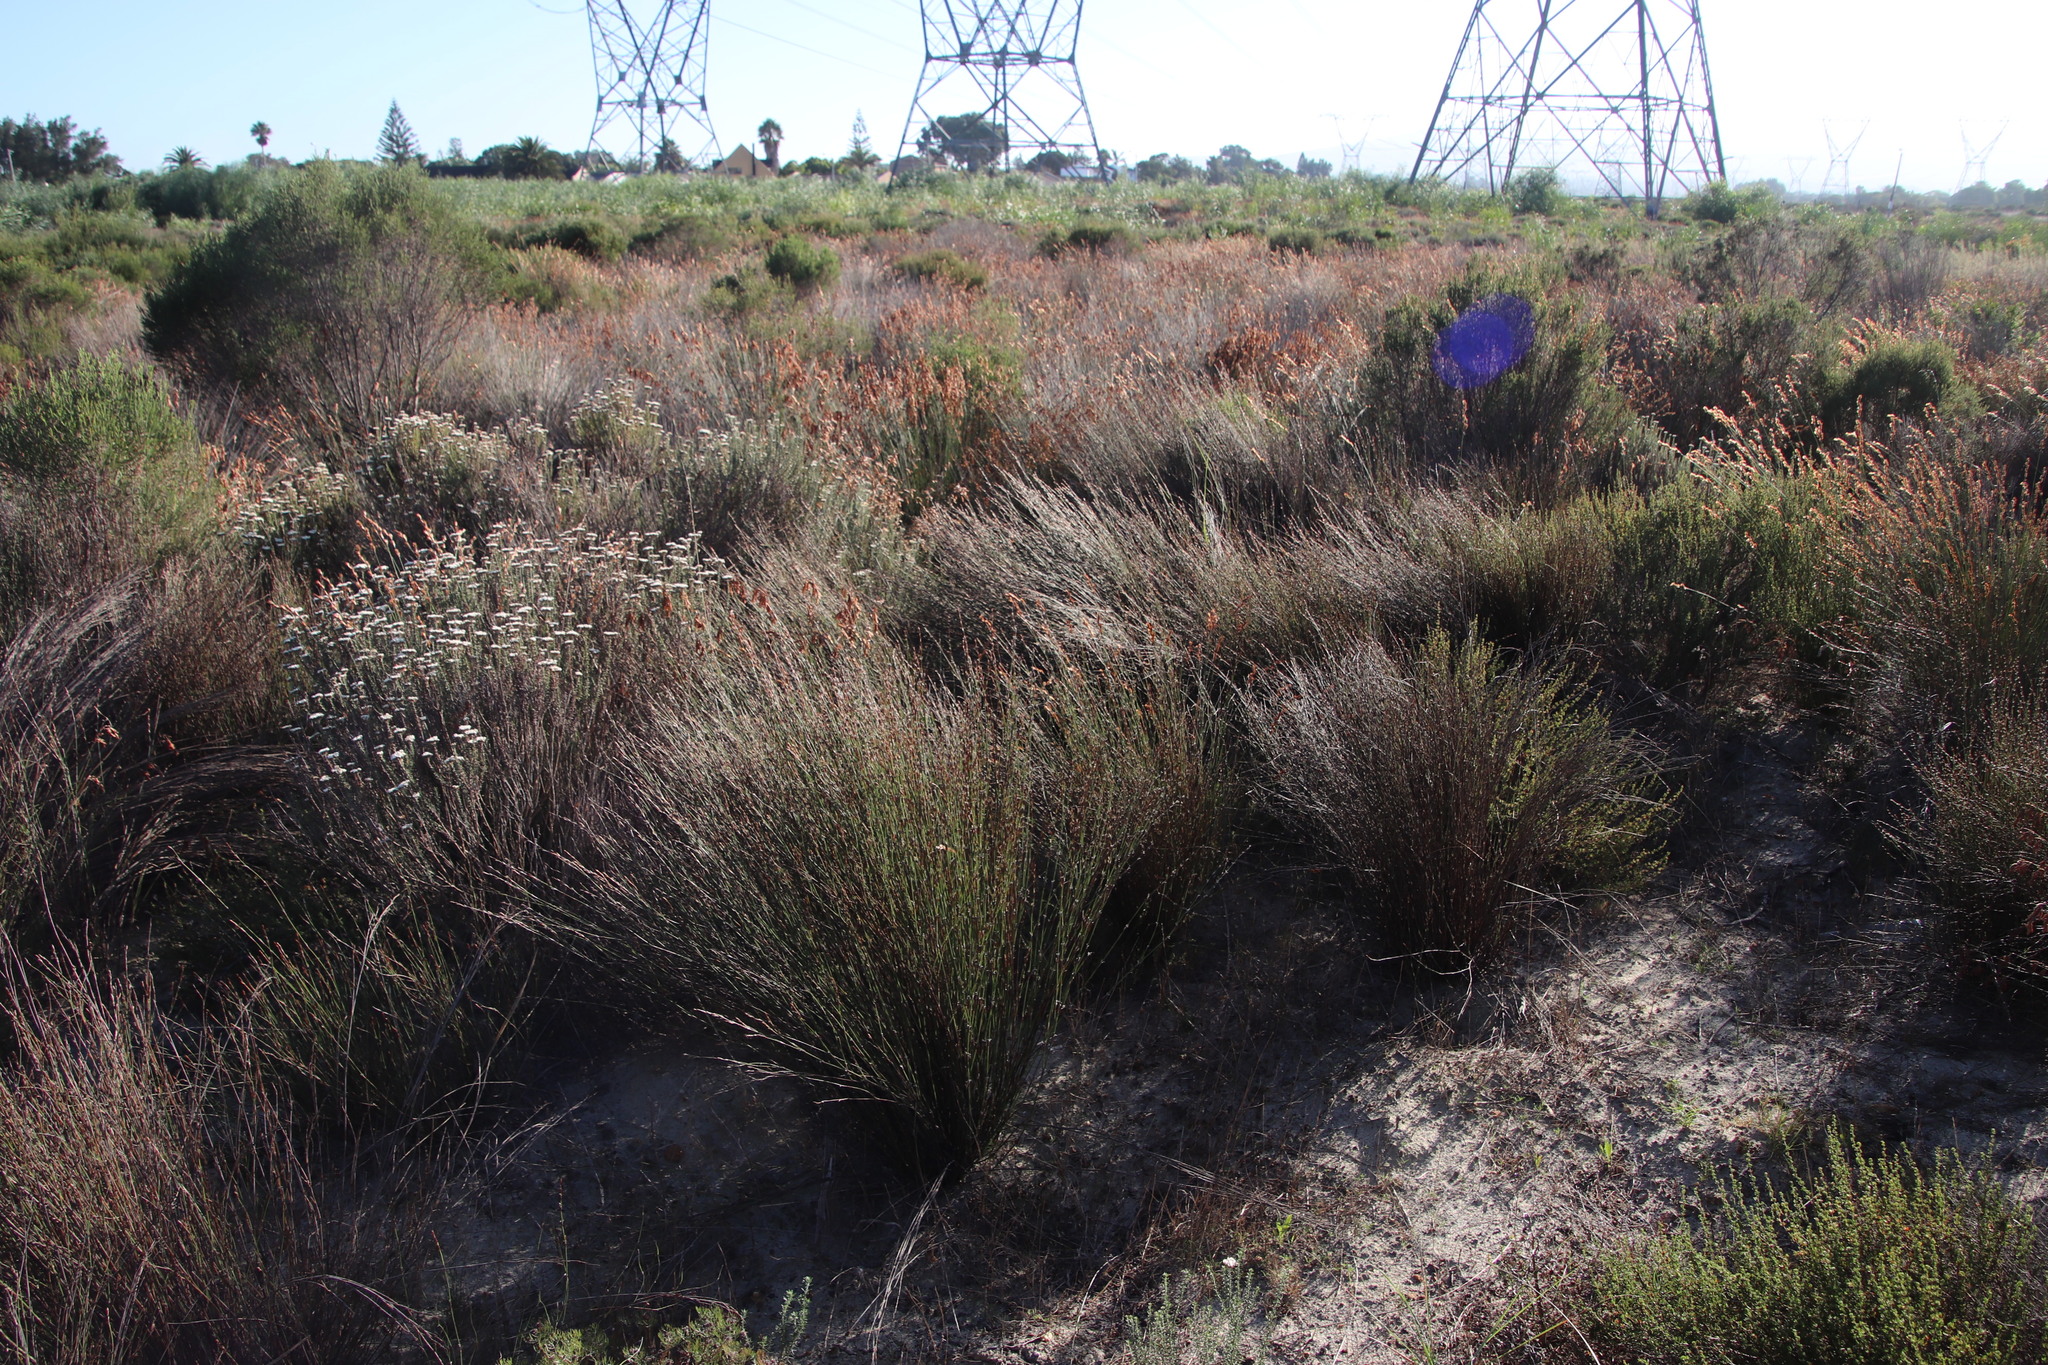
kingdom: Plantae
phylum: Tracheophyta
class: Liliopsida
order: Poales
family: Restionaceae
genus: Restio
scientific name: Restio impolitus
